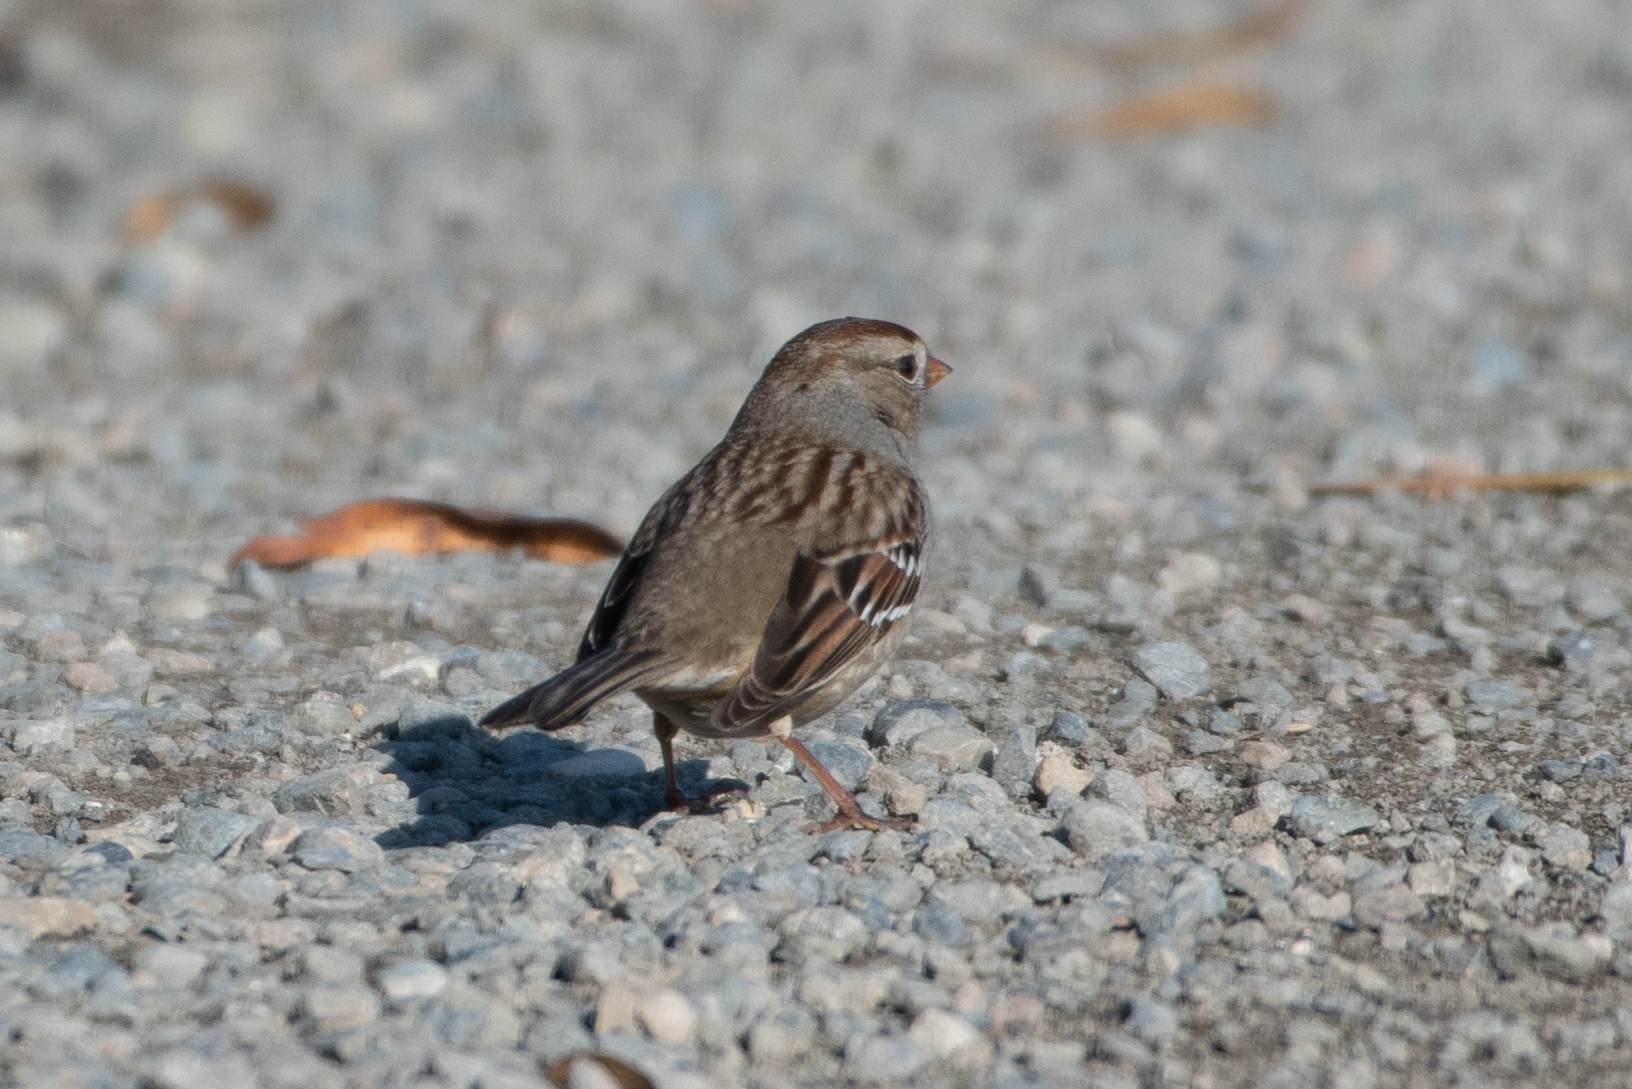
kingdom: Animalia
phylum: Chordata
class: Aves
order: Passeriformes
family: Passerellidae
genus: Zonotrichia
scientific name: Zonotrichia leucophrys
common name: White-crowned sparrow
